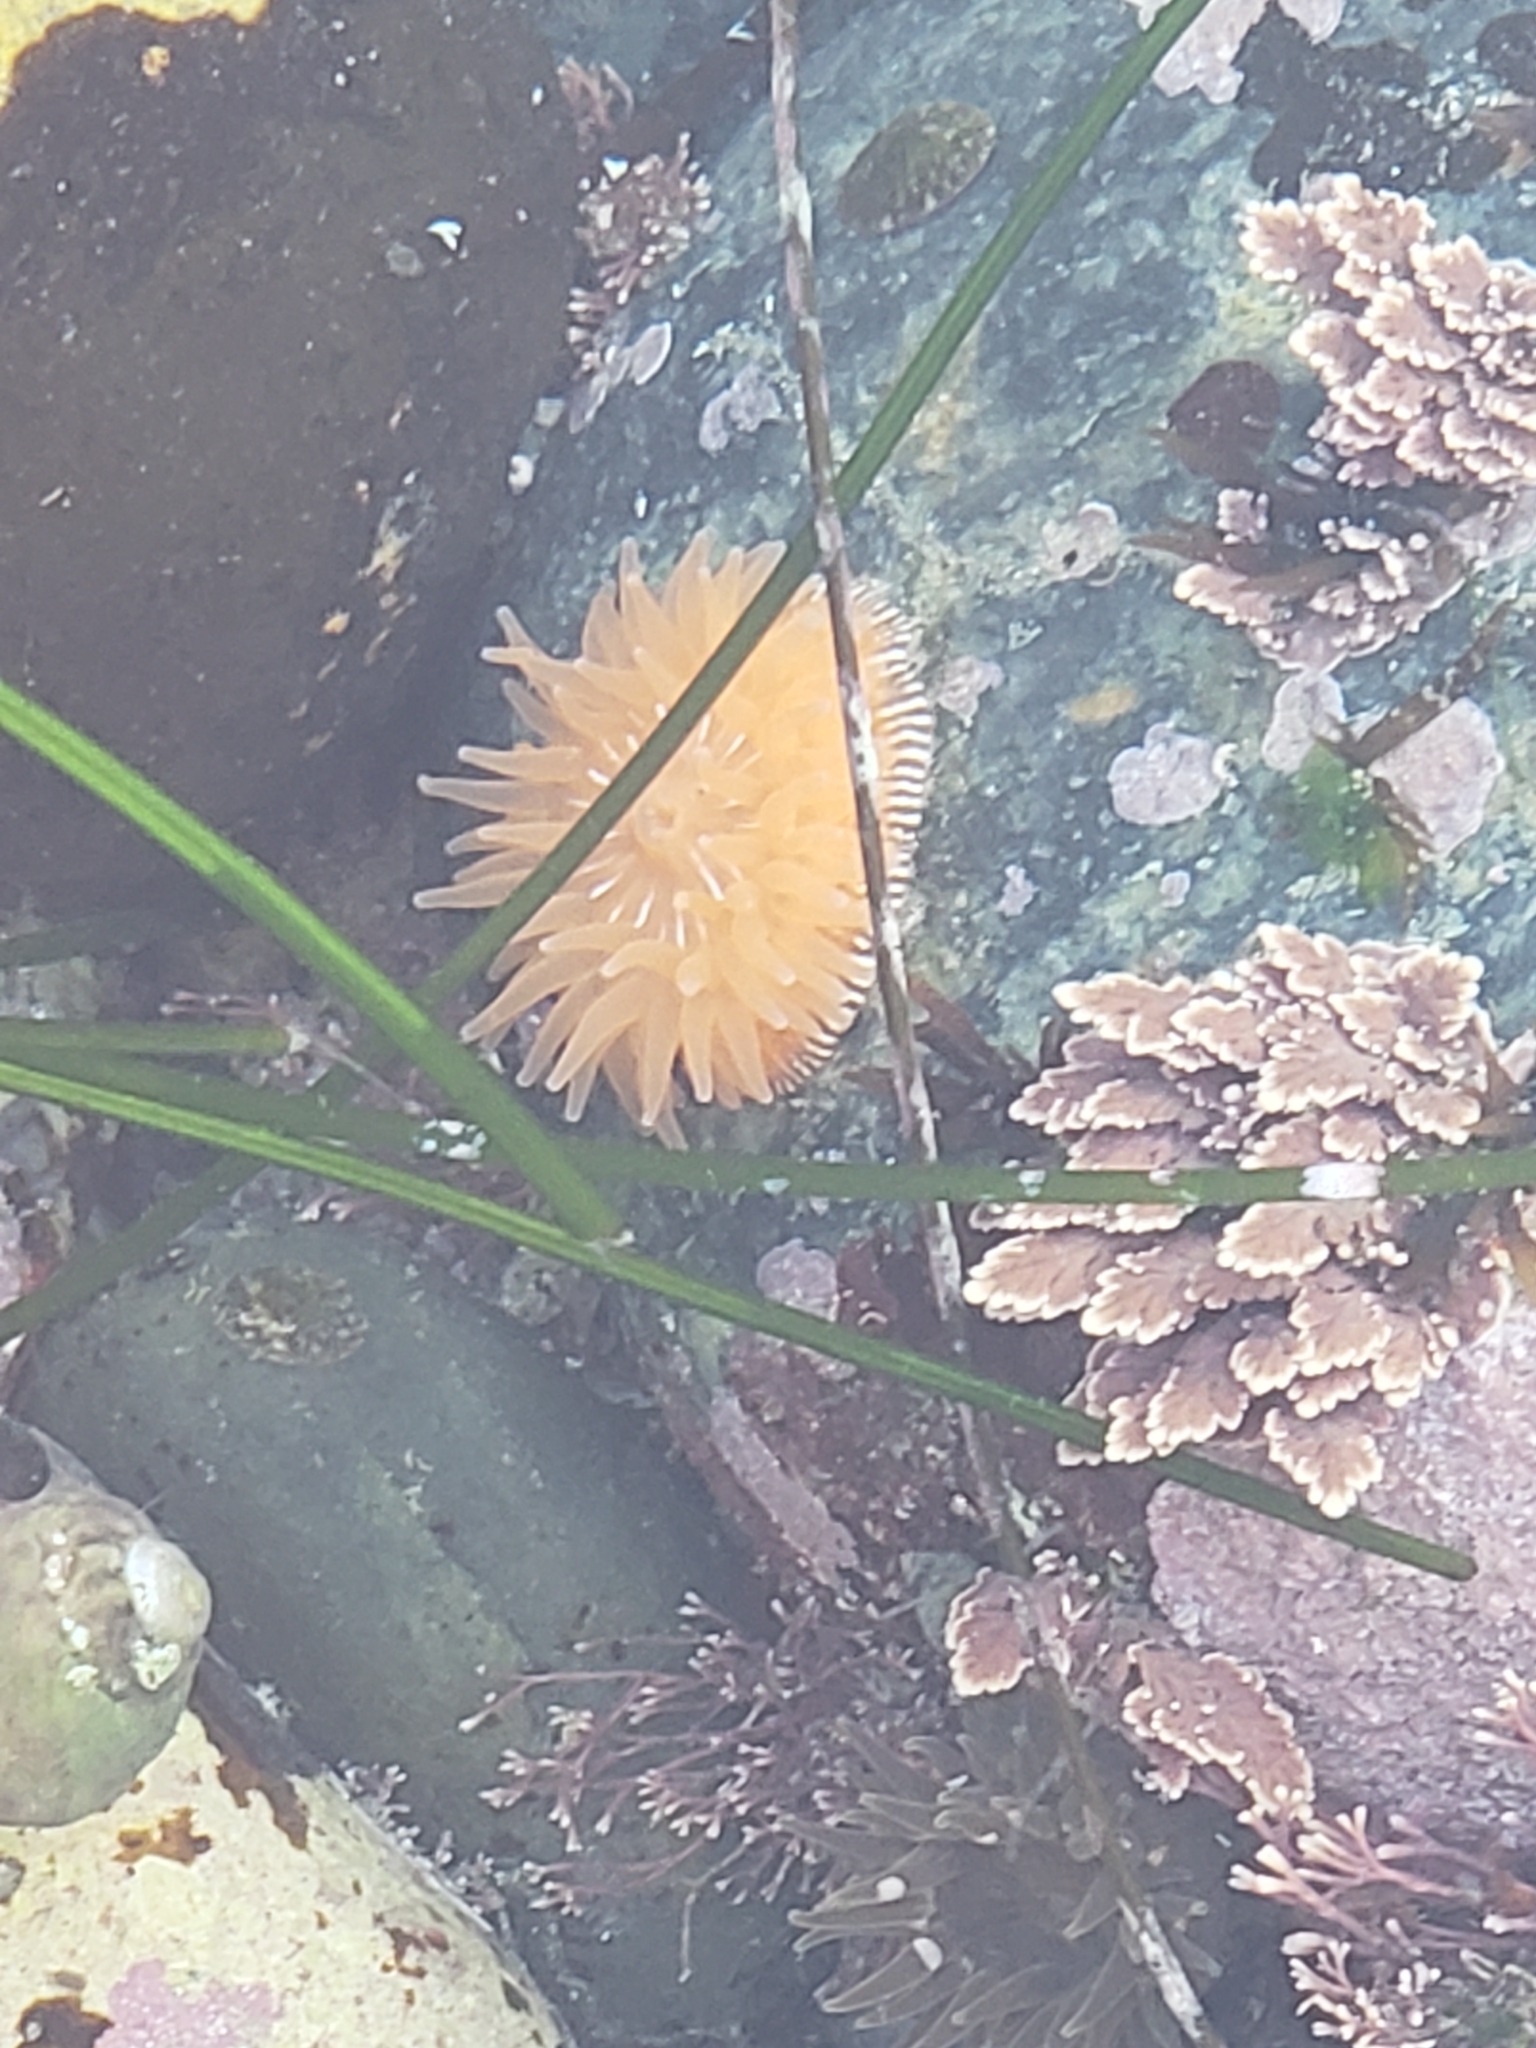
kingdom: Animalia
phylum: Cnidaria
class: Anthozoa
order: Actiniaria
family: Actiniidae
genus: Epiactis
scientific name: Epiactis prolifera
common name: Brooding anemone
